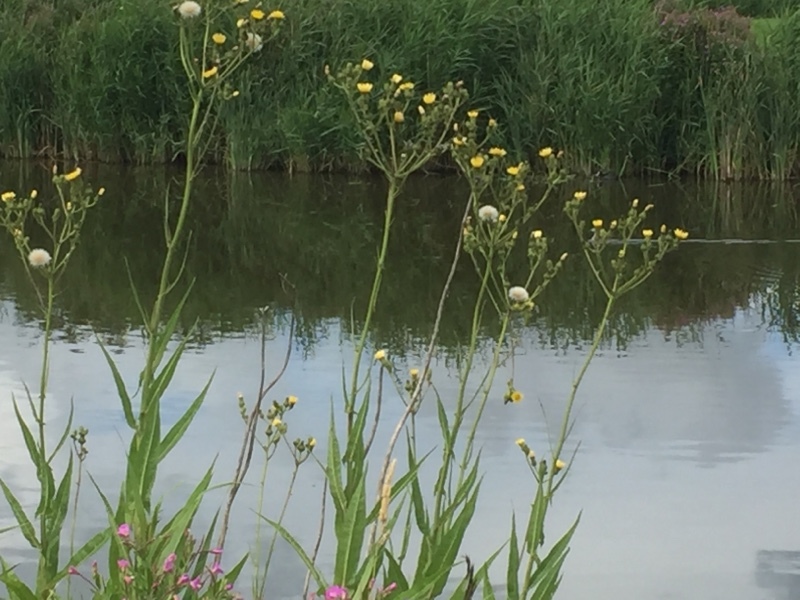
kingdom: Plantae
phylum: Tracheophyta
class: Magnoliopsida
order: Asterales
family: Asteraceae
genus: Sonchus
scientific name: Sonchus palustris
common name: Marsh sow-thistle
